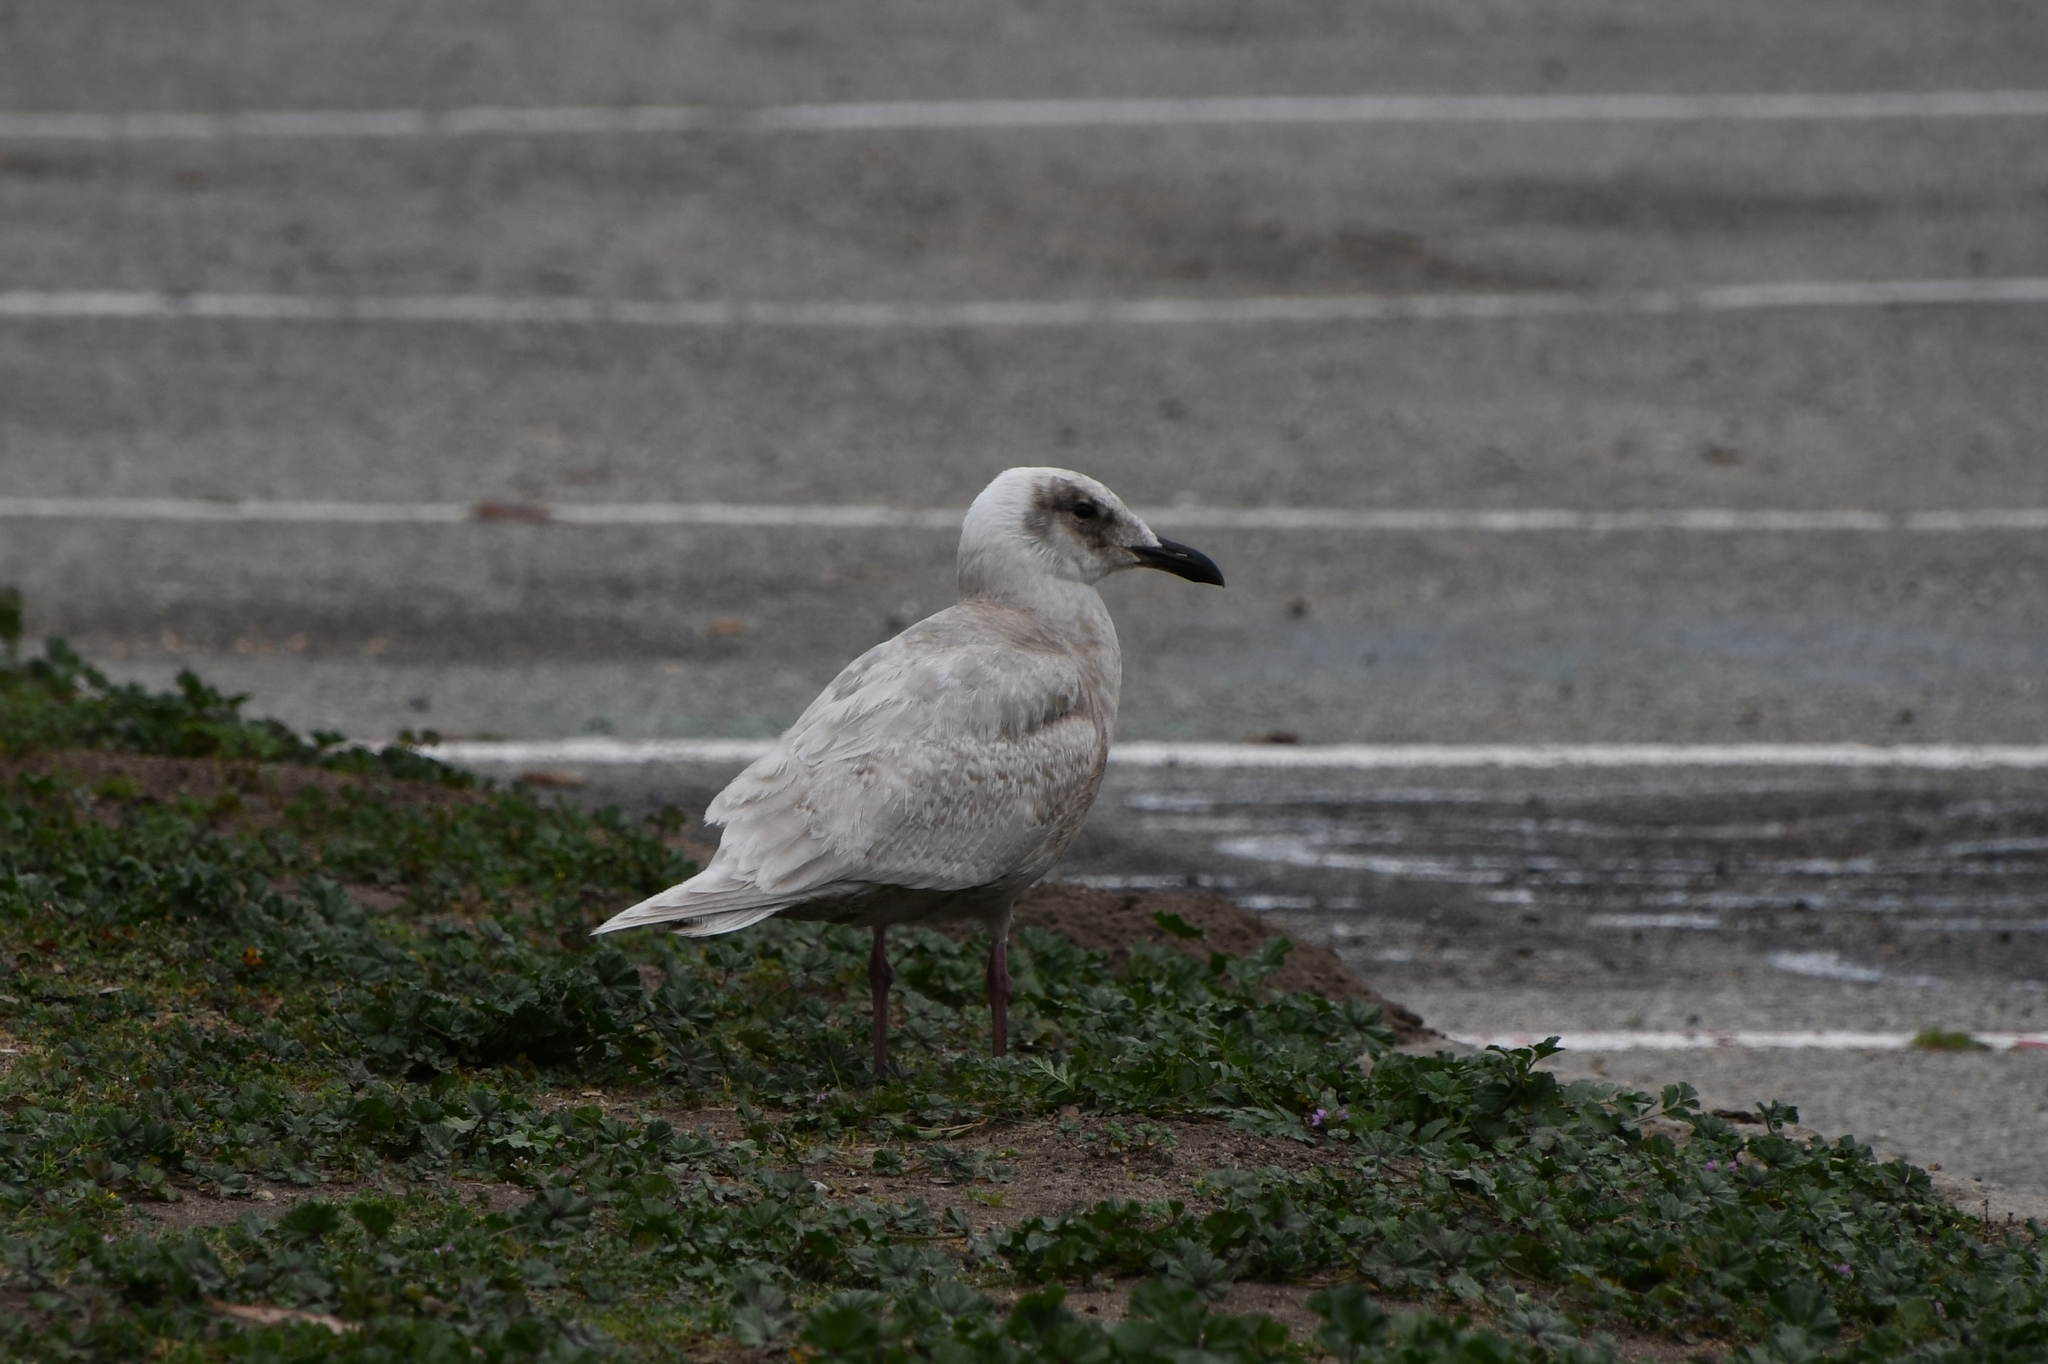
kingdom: Animalia
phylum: Chordata
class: Aves
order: Charadriiformes
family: Laridae
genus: Larus
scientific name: Larus glaucescens
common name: Glaucous-winged gull
